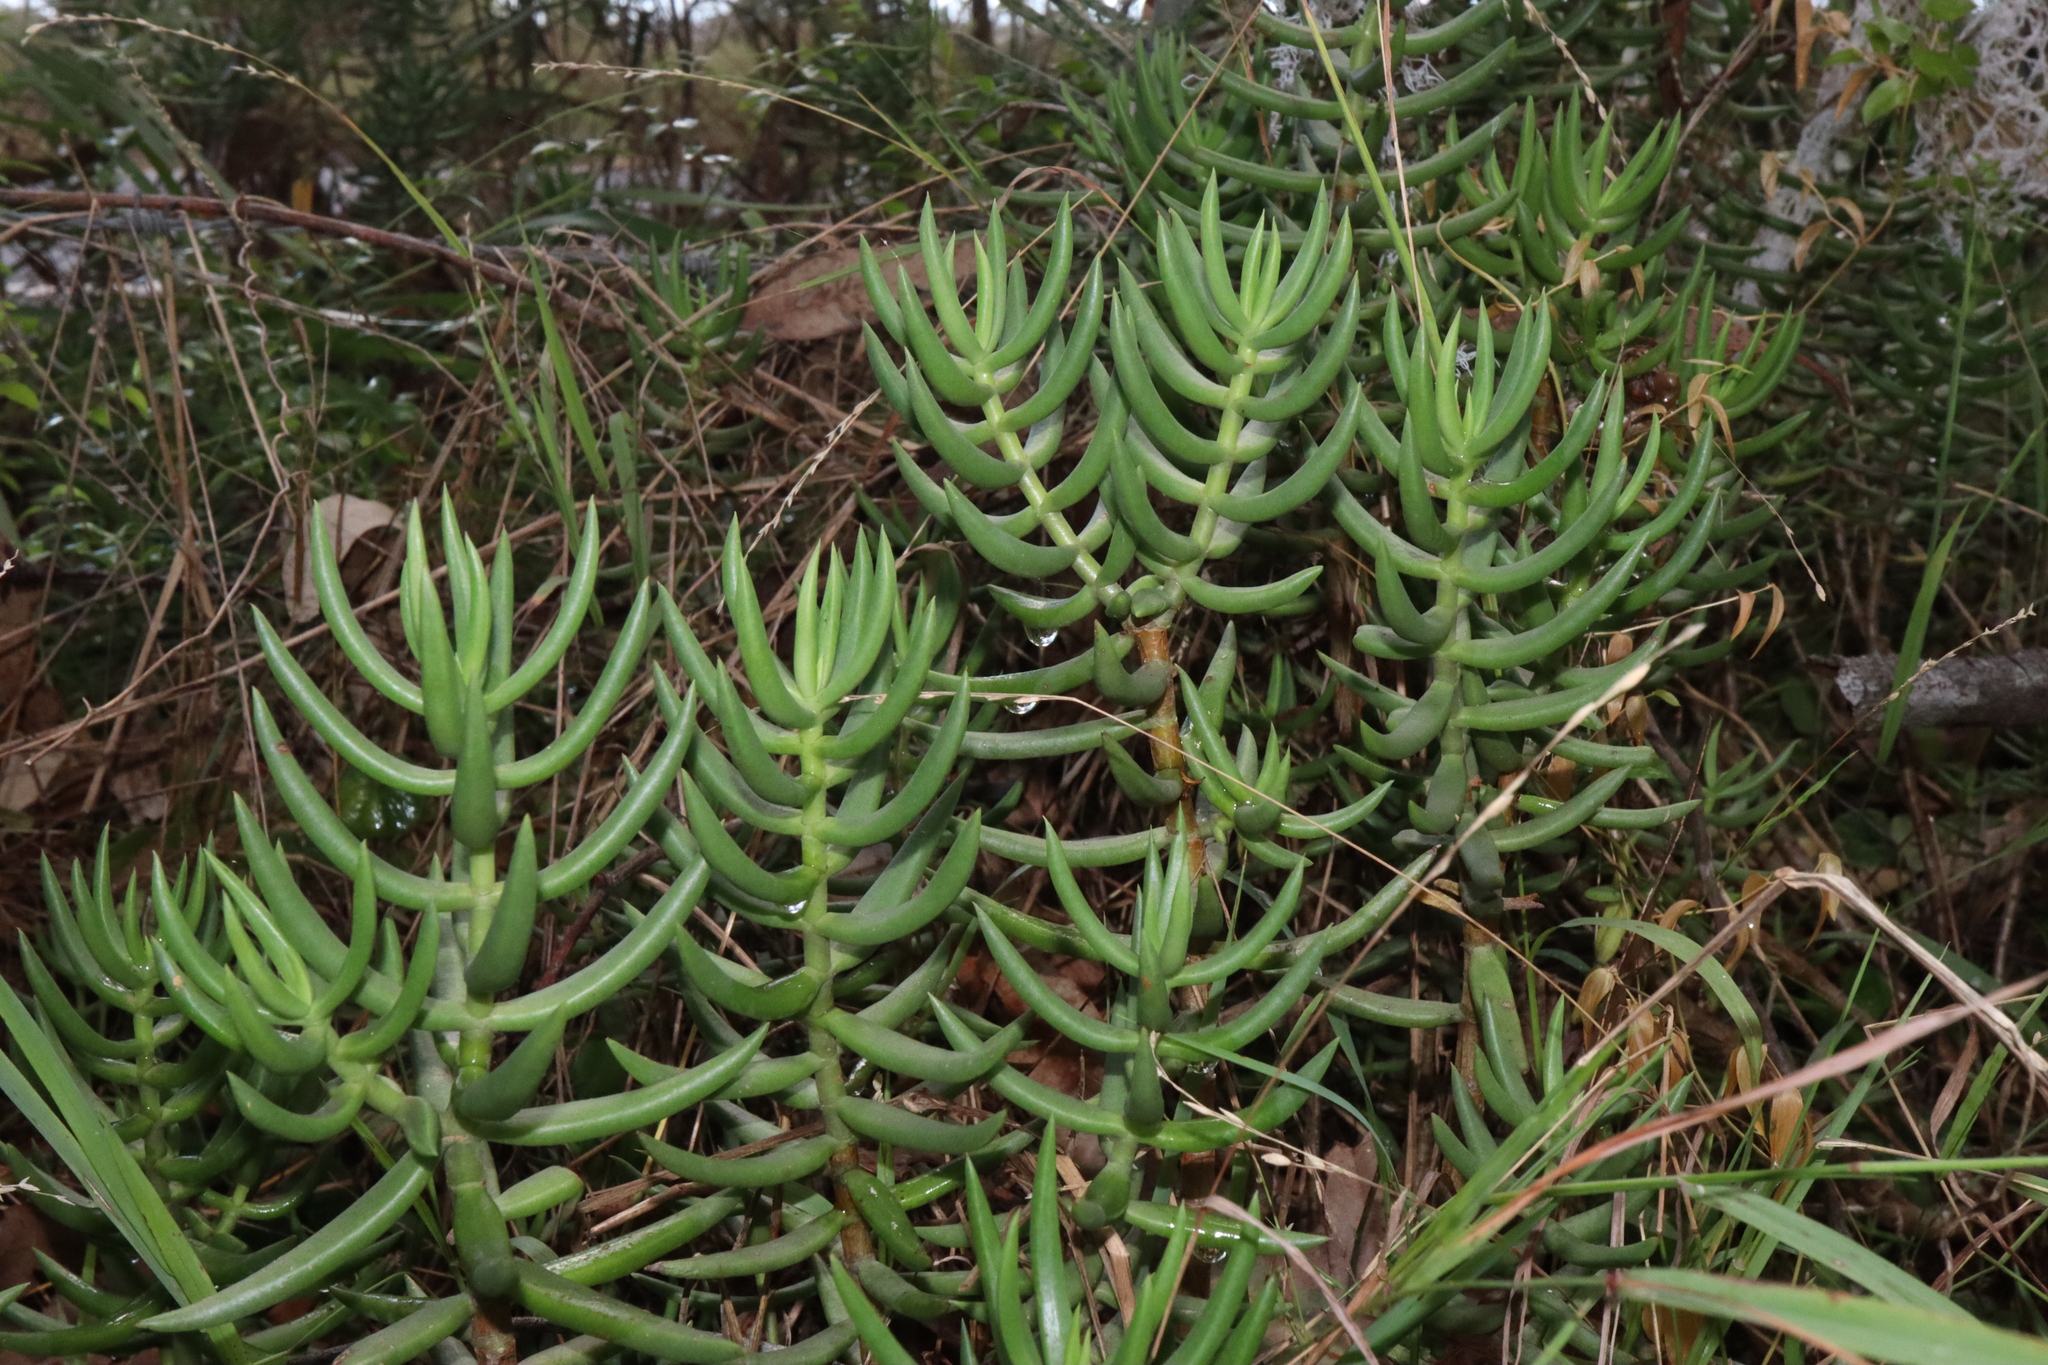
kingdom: Plantae
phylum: Tracheophyta
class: Magnoliopsida
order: Saxifragales
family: Crassulaceae
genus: Crassula
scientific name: Crassula tetragona
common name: Pygmyweed
